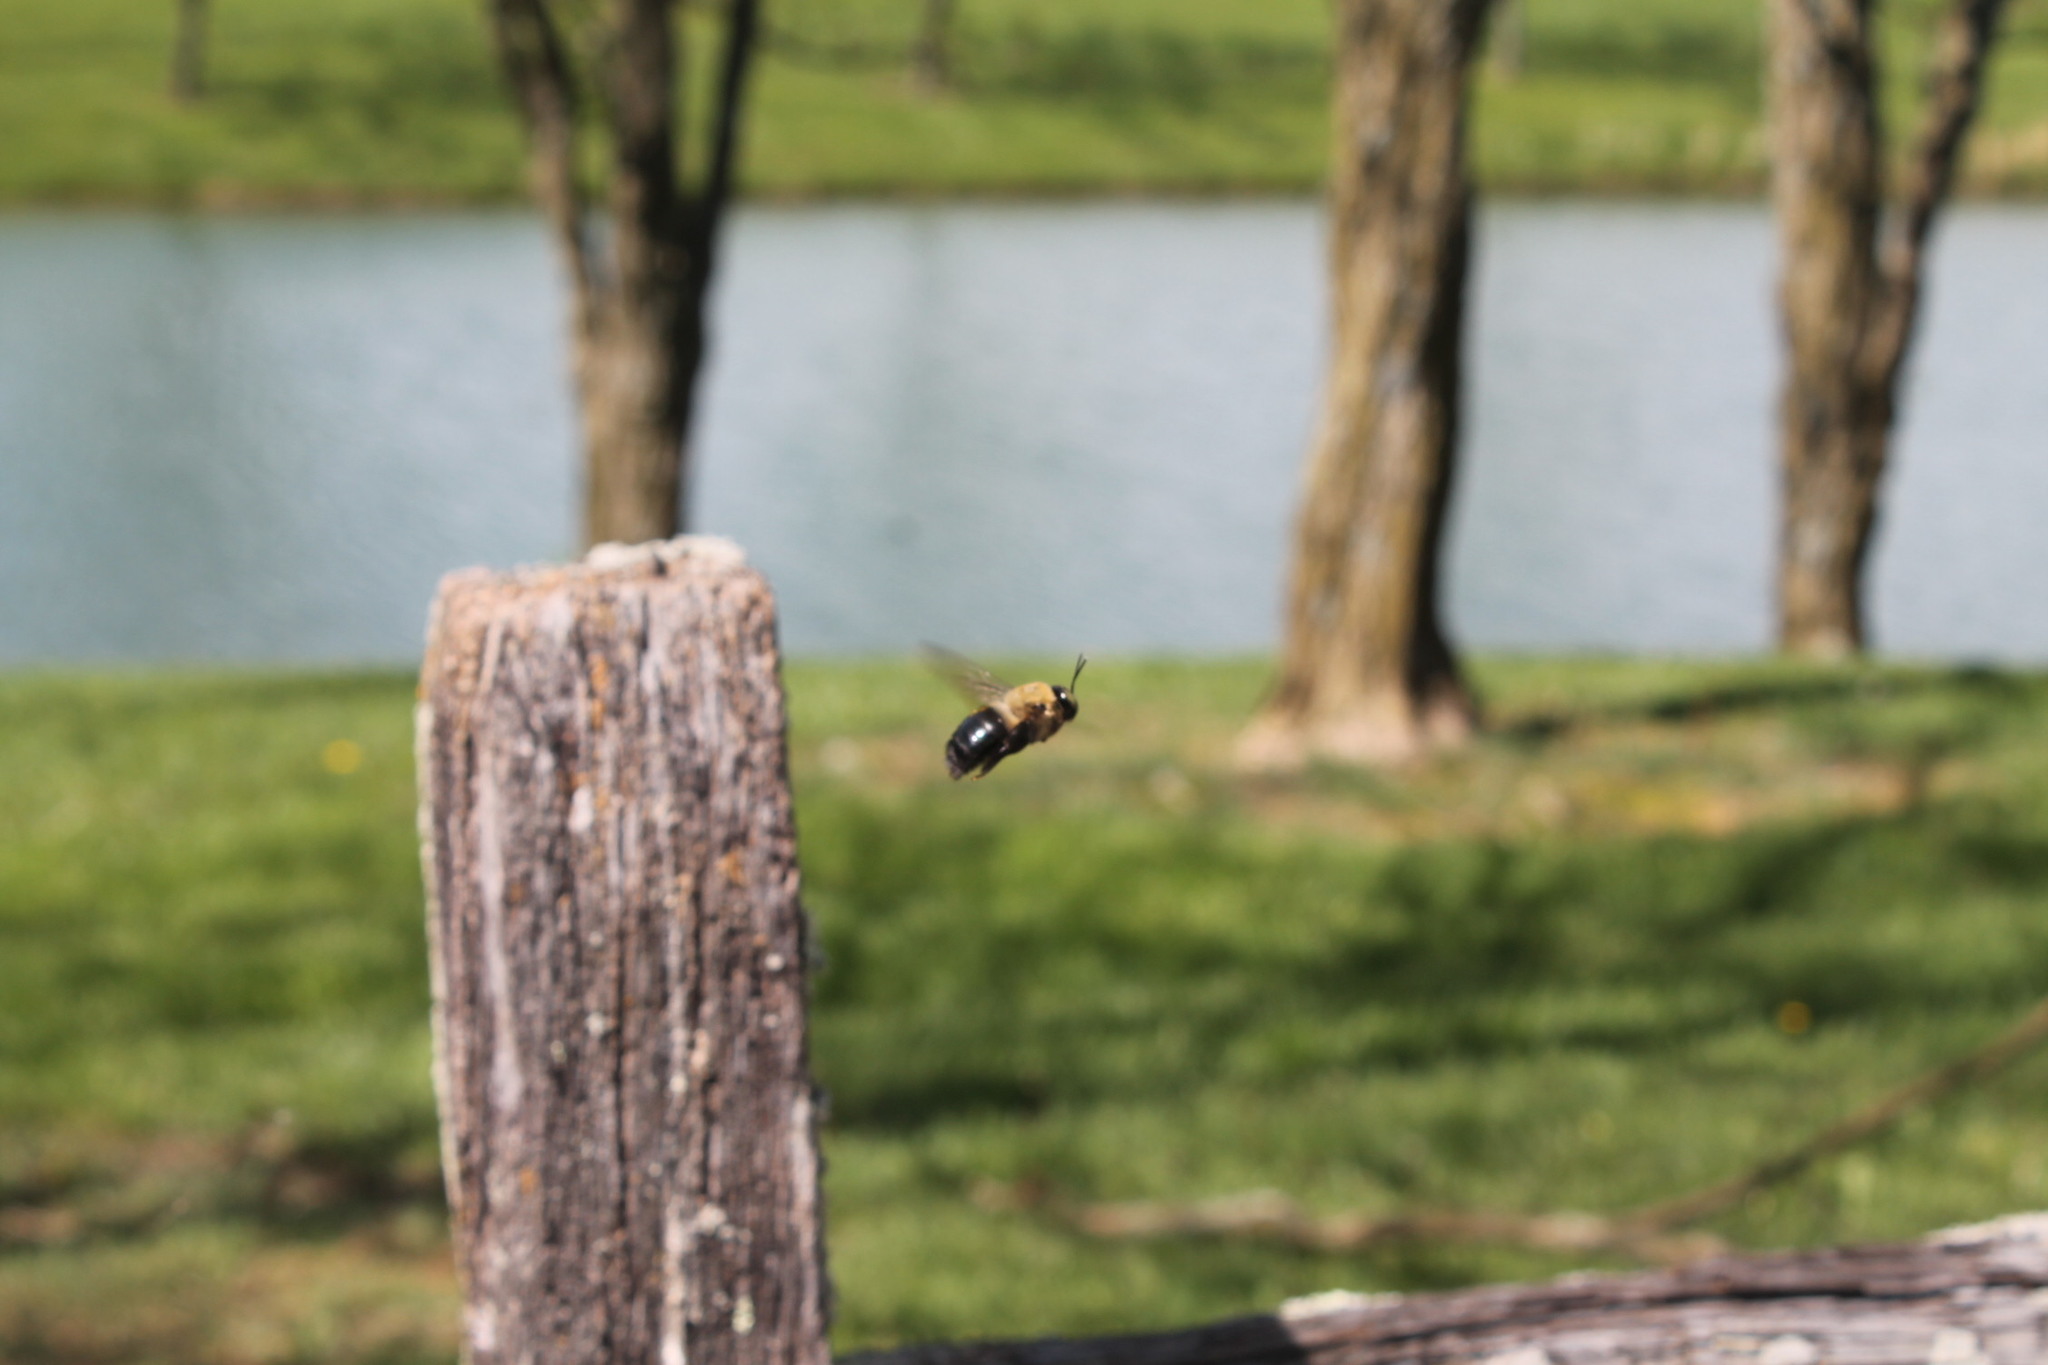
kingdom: Animalia
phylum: Arthropoda
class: Insecta
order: Hymenoptera
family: Apidae
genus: Xylocopa
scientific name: Xylocopa virginica
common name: Carpenter bee
